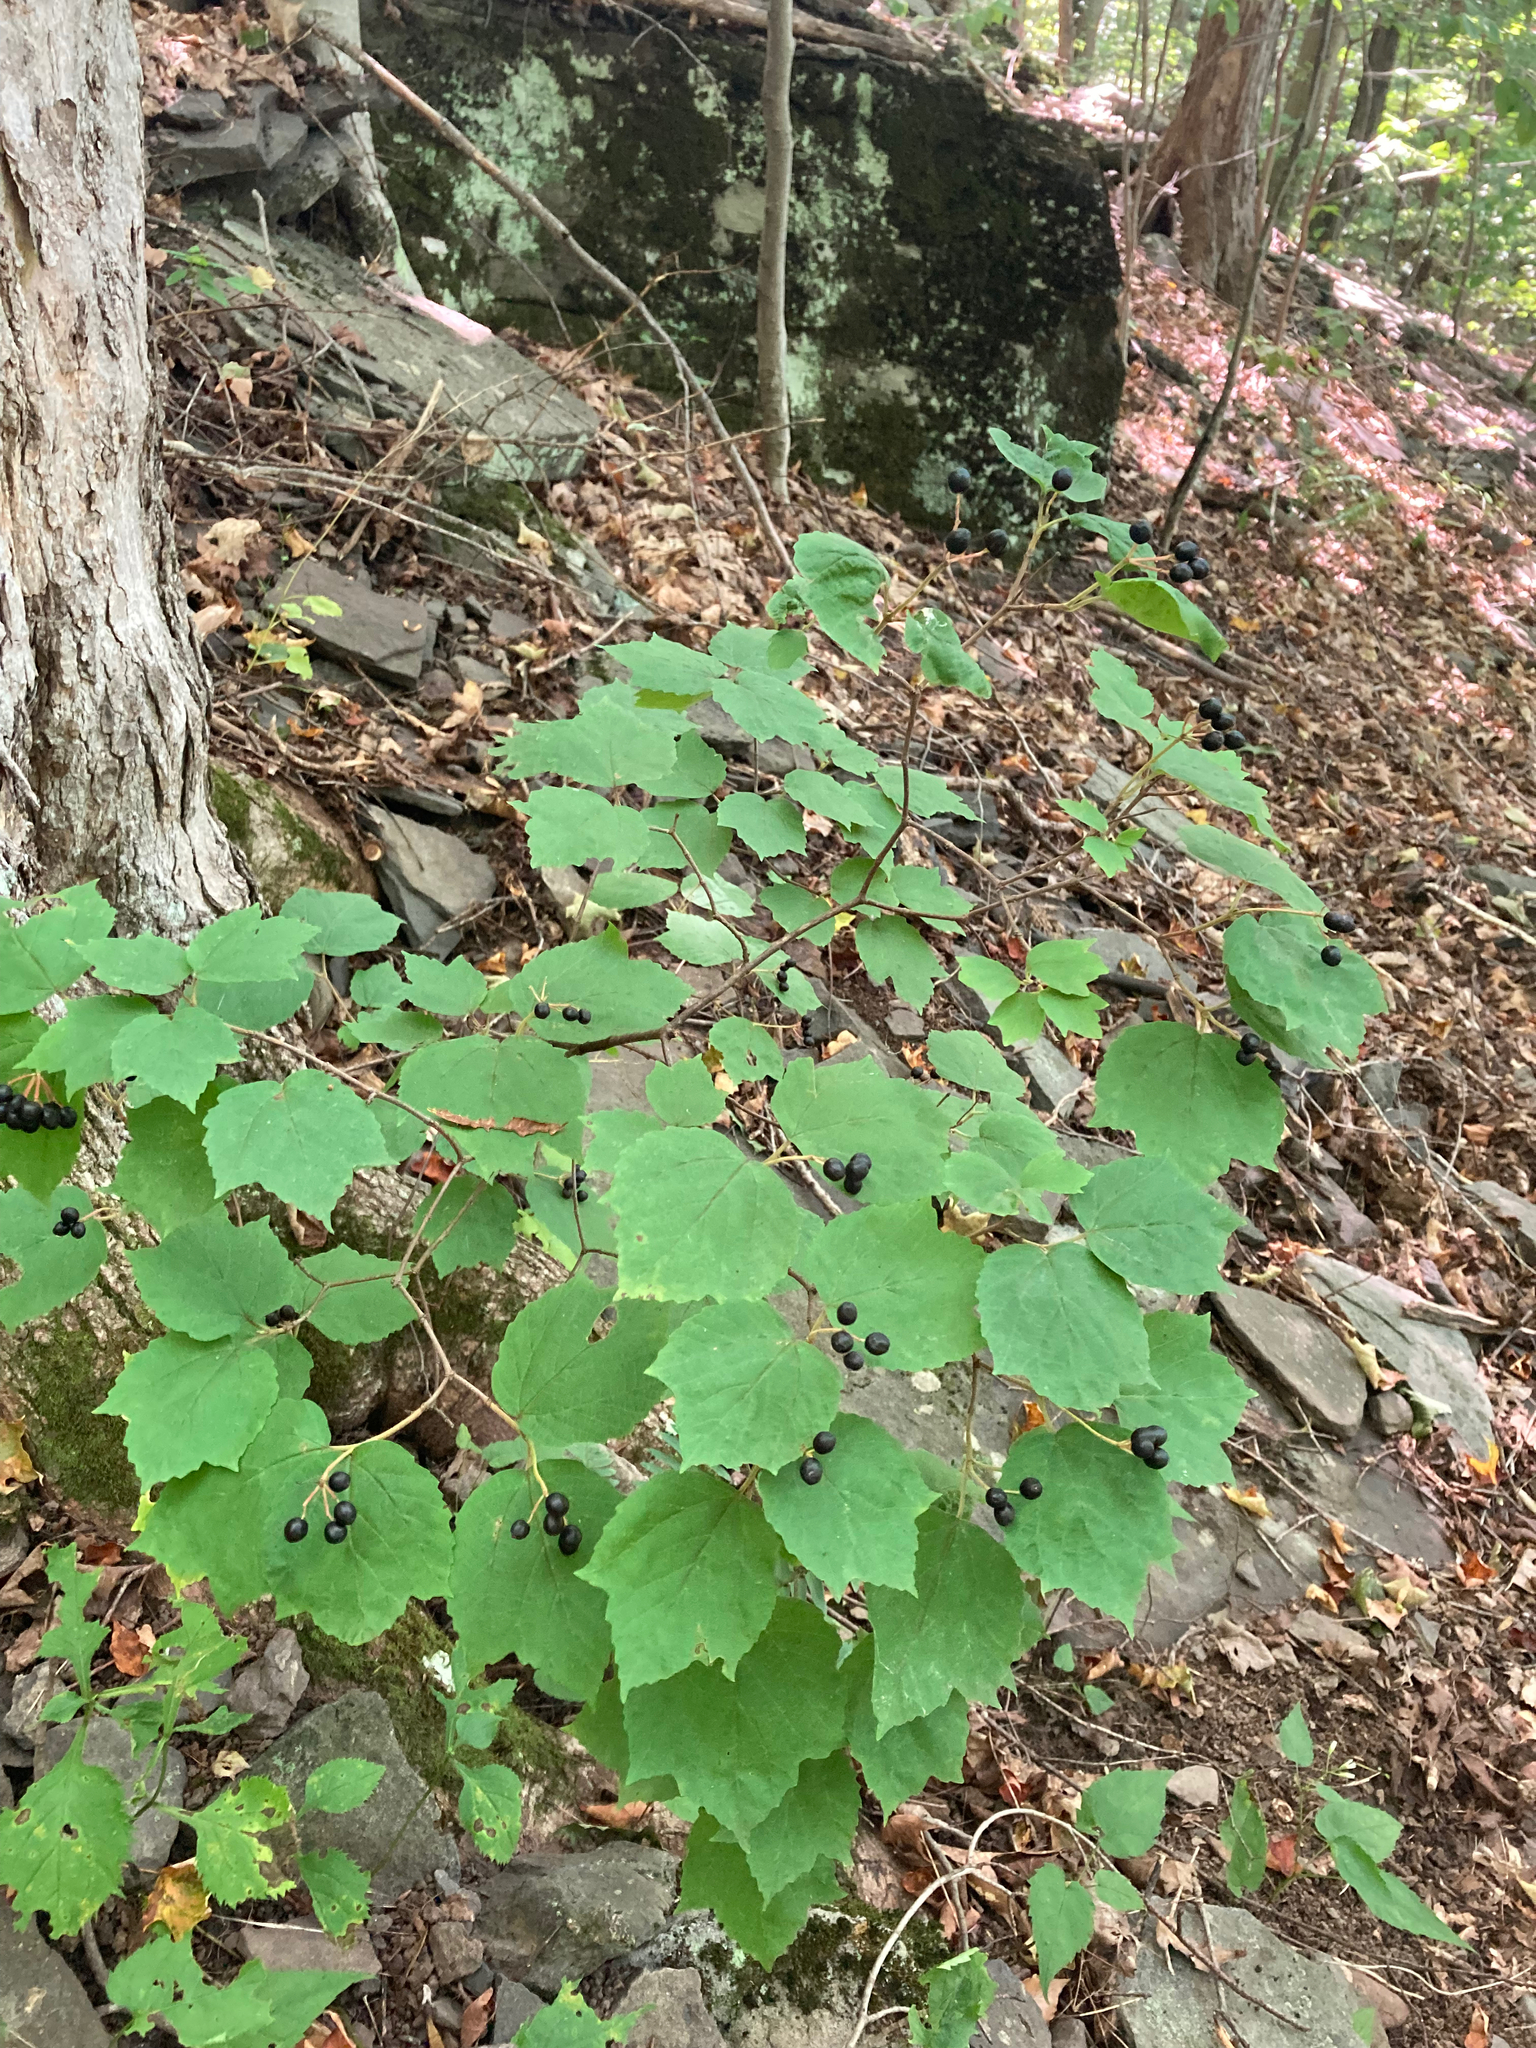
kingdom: Plantae
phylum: Tracheophyta
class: Magnoliopsida
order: Dipsacales
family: Viburnaceae
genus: Viburnum
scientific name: Viburnum acerifolium
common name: Dockmackie
